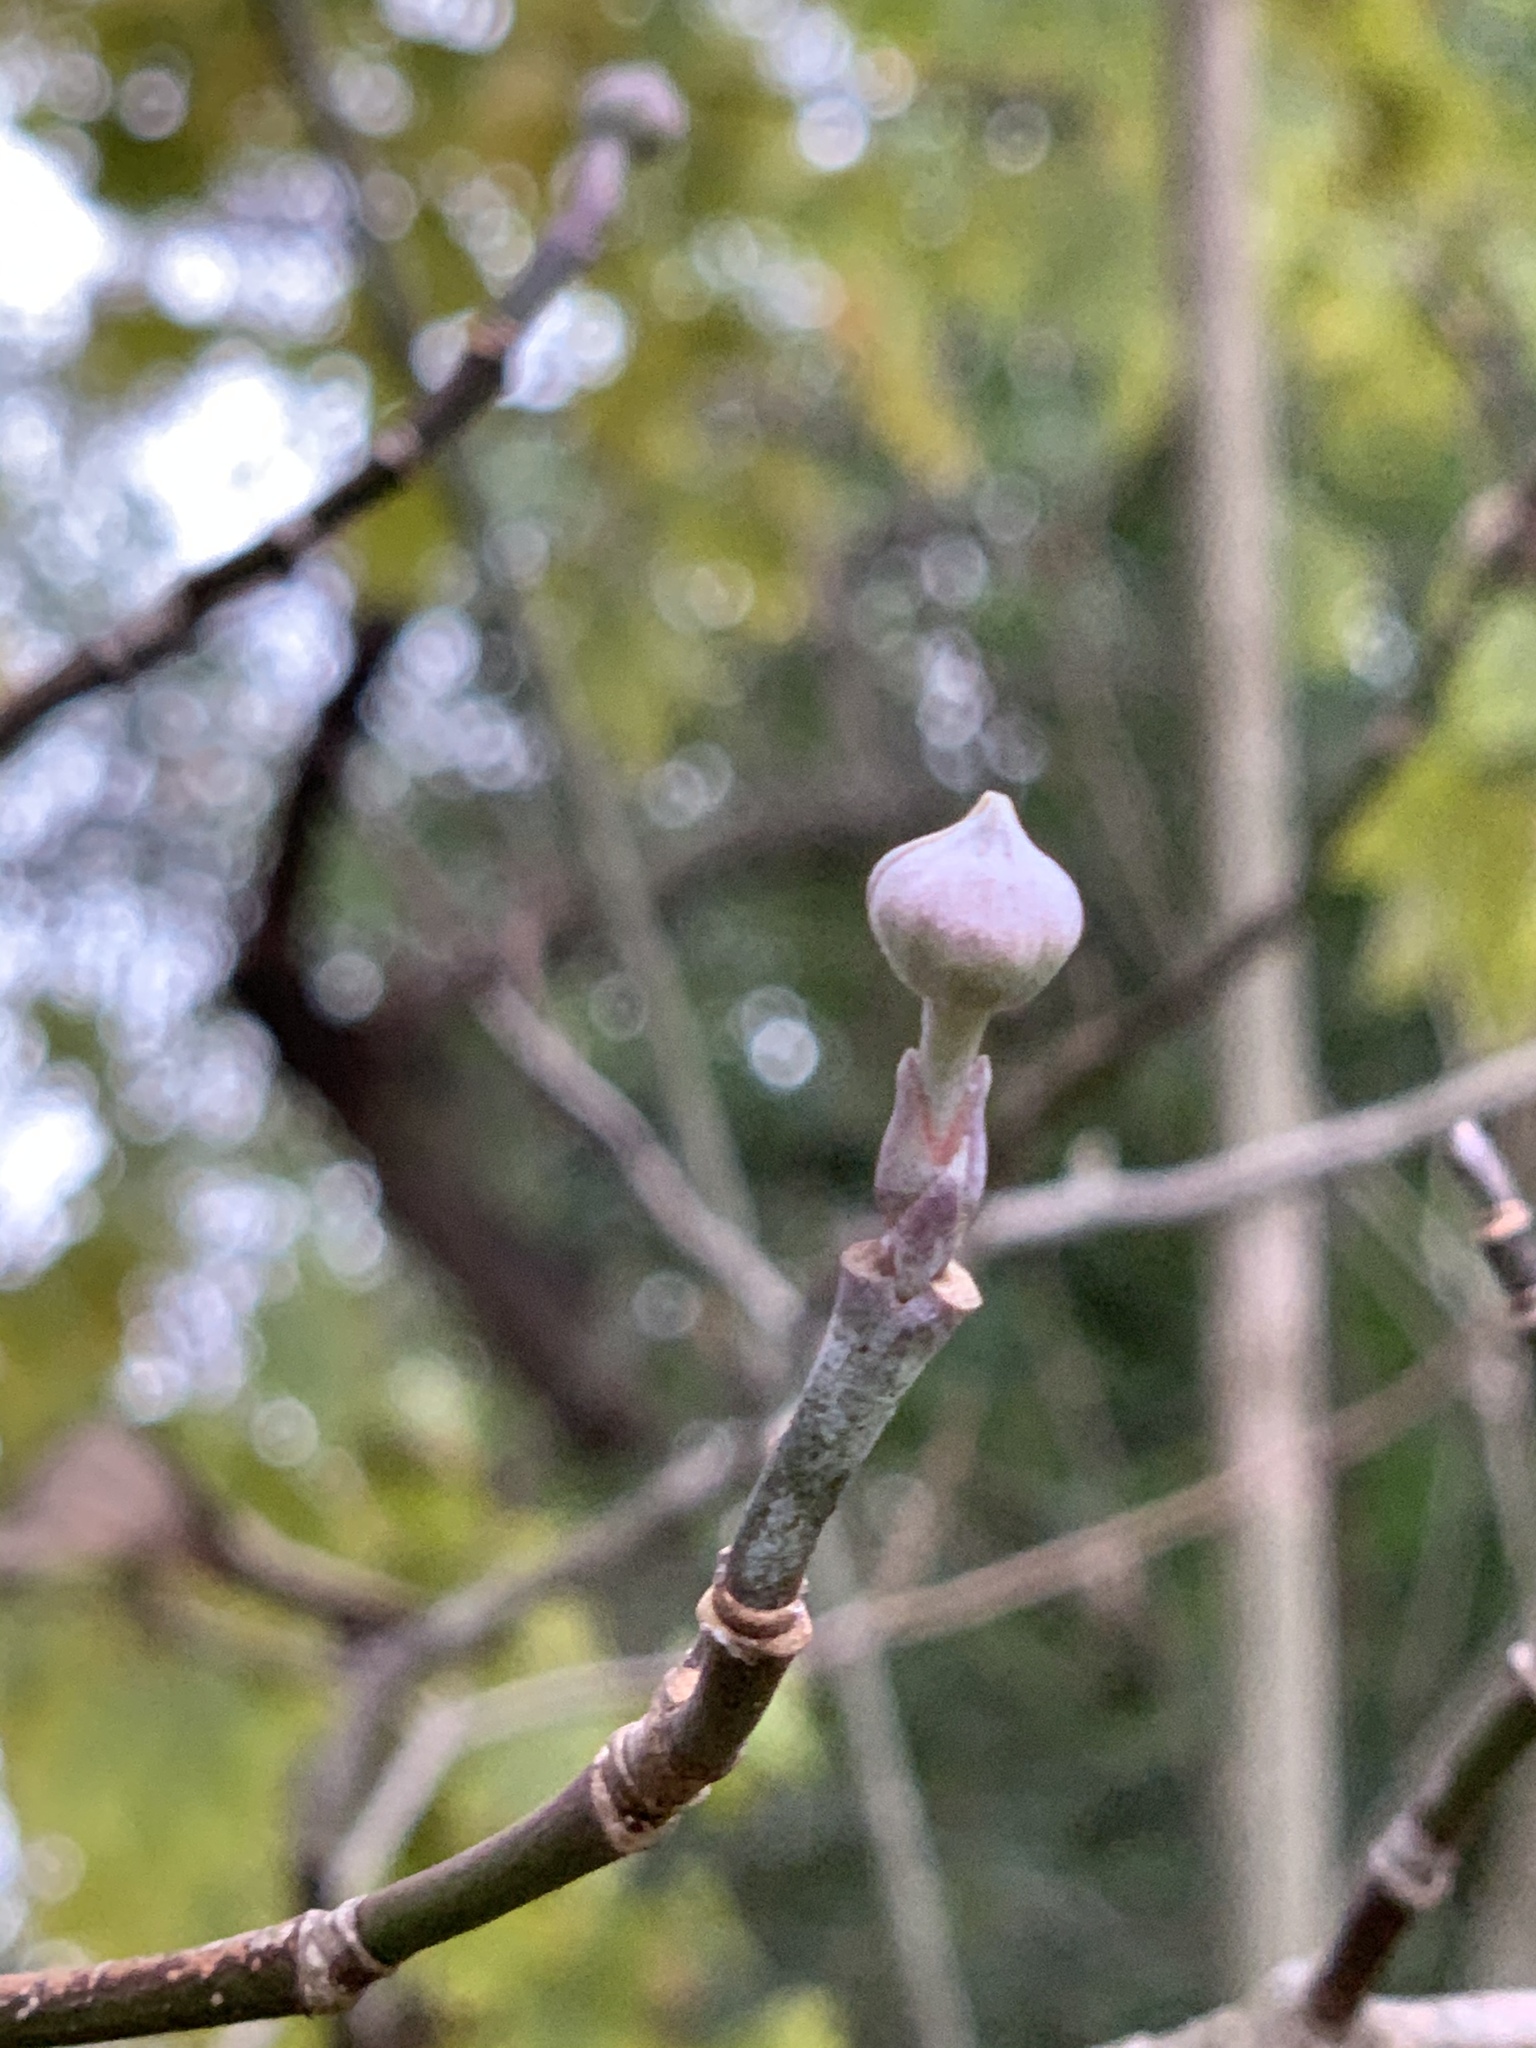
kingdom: Plantae
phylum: Tracheophyta
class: Magnoliopsida
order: Cornales
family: Cornaceae
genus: Cornus
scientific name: Cornus florida
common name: Flowering dogwood
